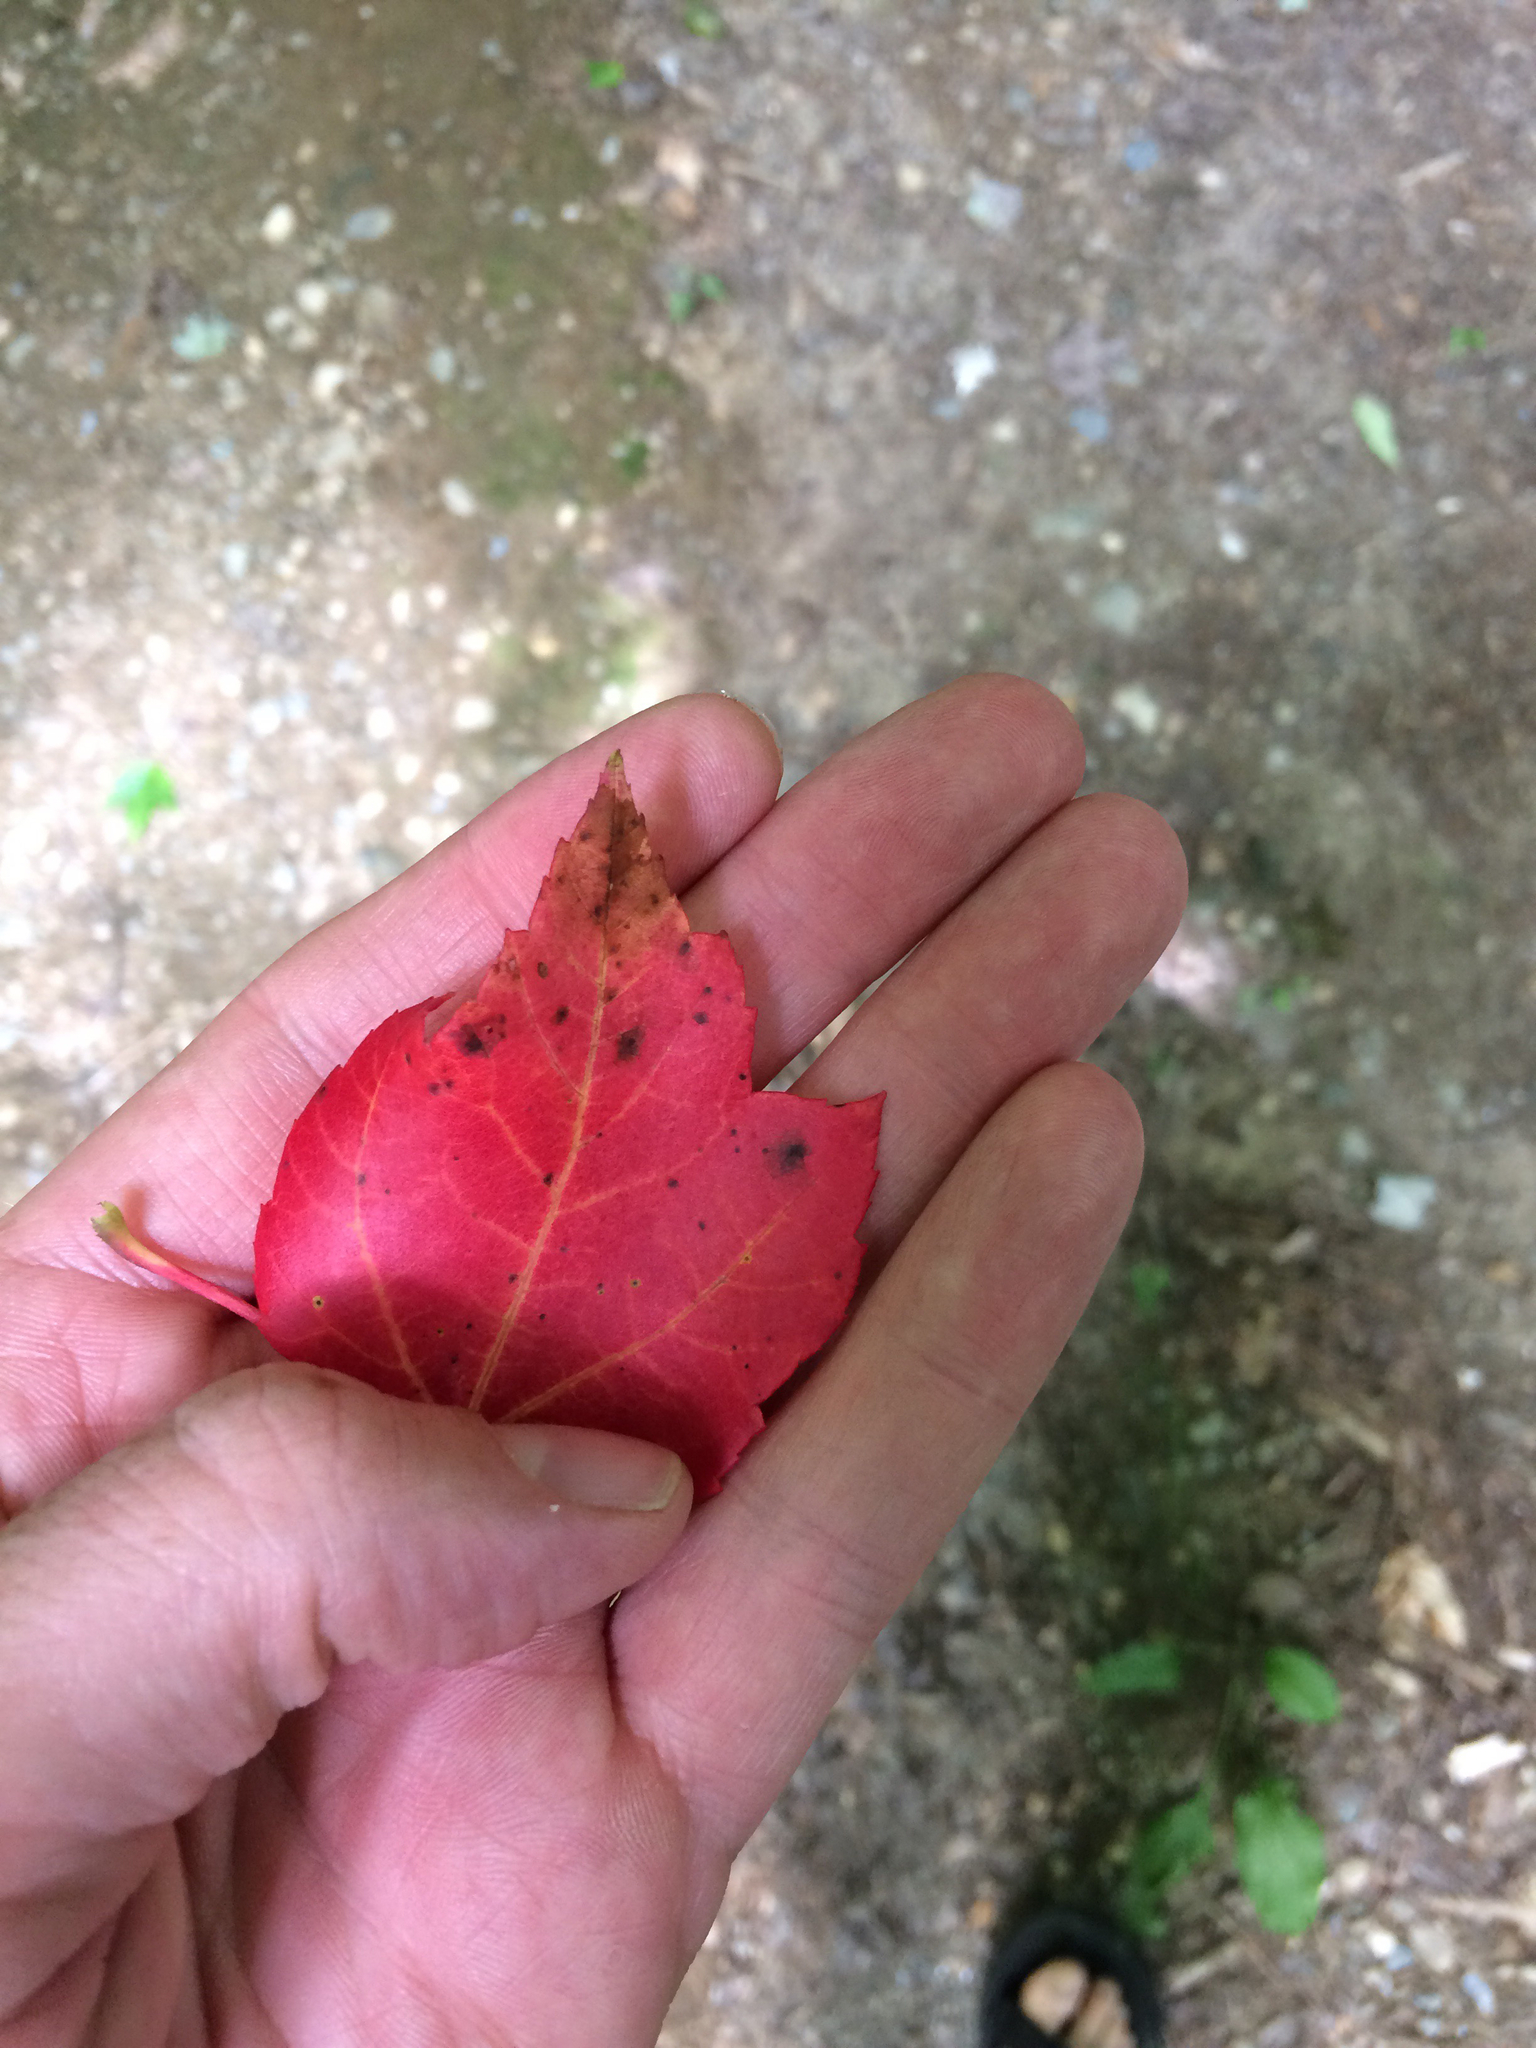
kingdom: Plantae
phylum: Tracheophyta
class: Magnoliopsida
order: Sapindales
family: Sapindaceae
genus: Acer
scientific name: Acer rubrum
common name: Red maple
